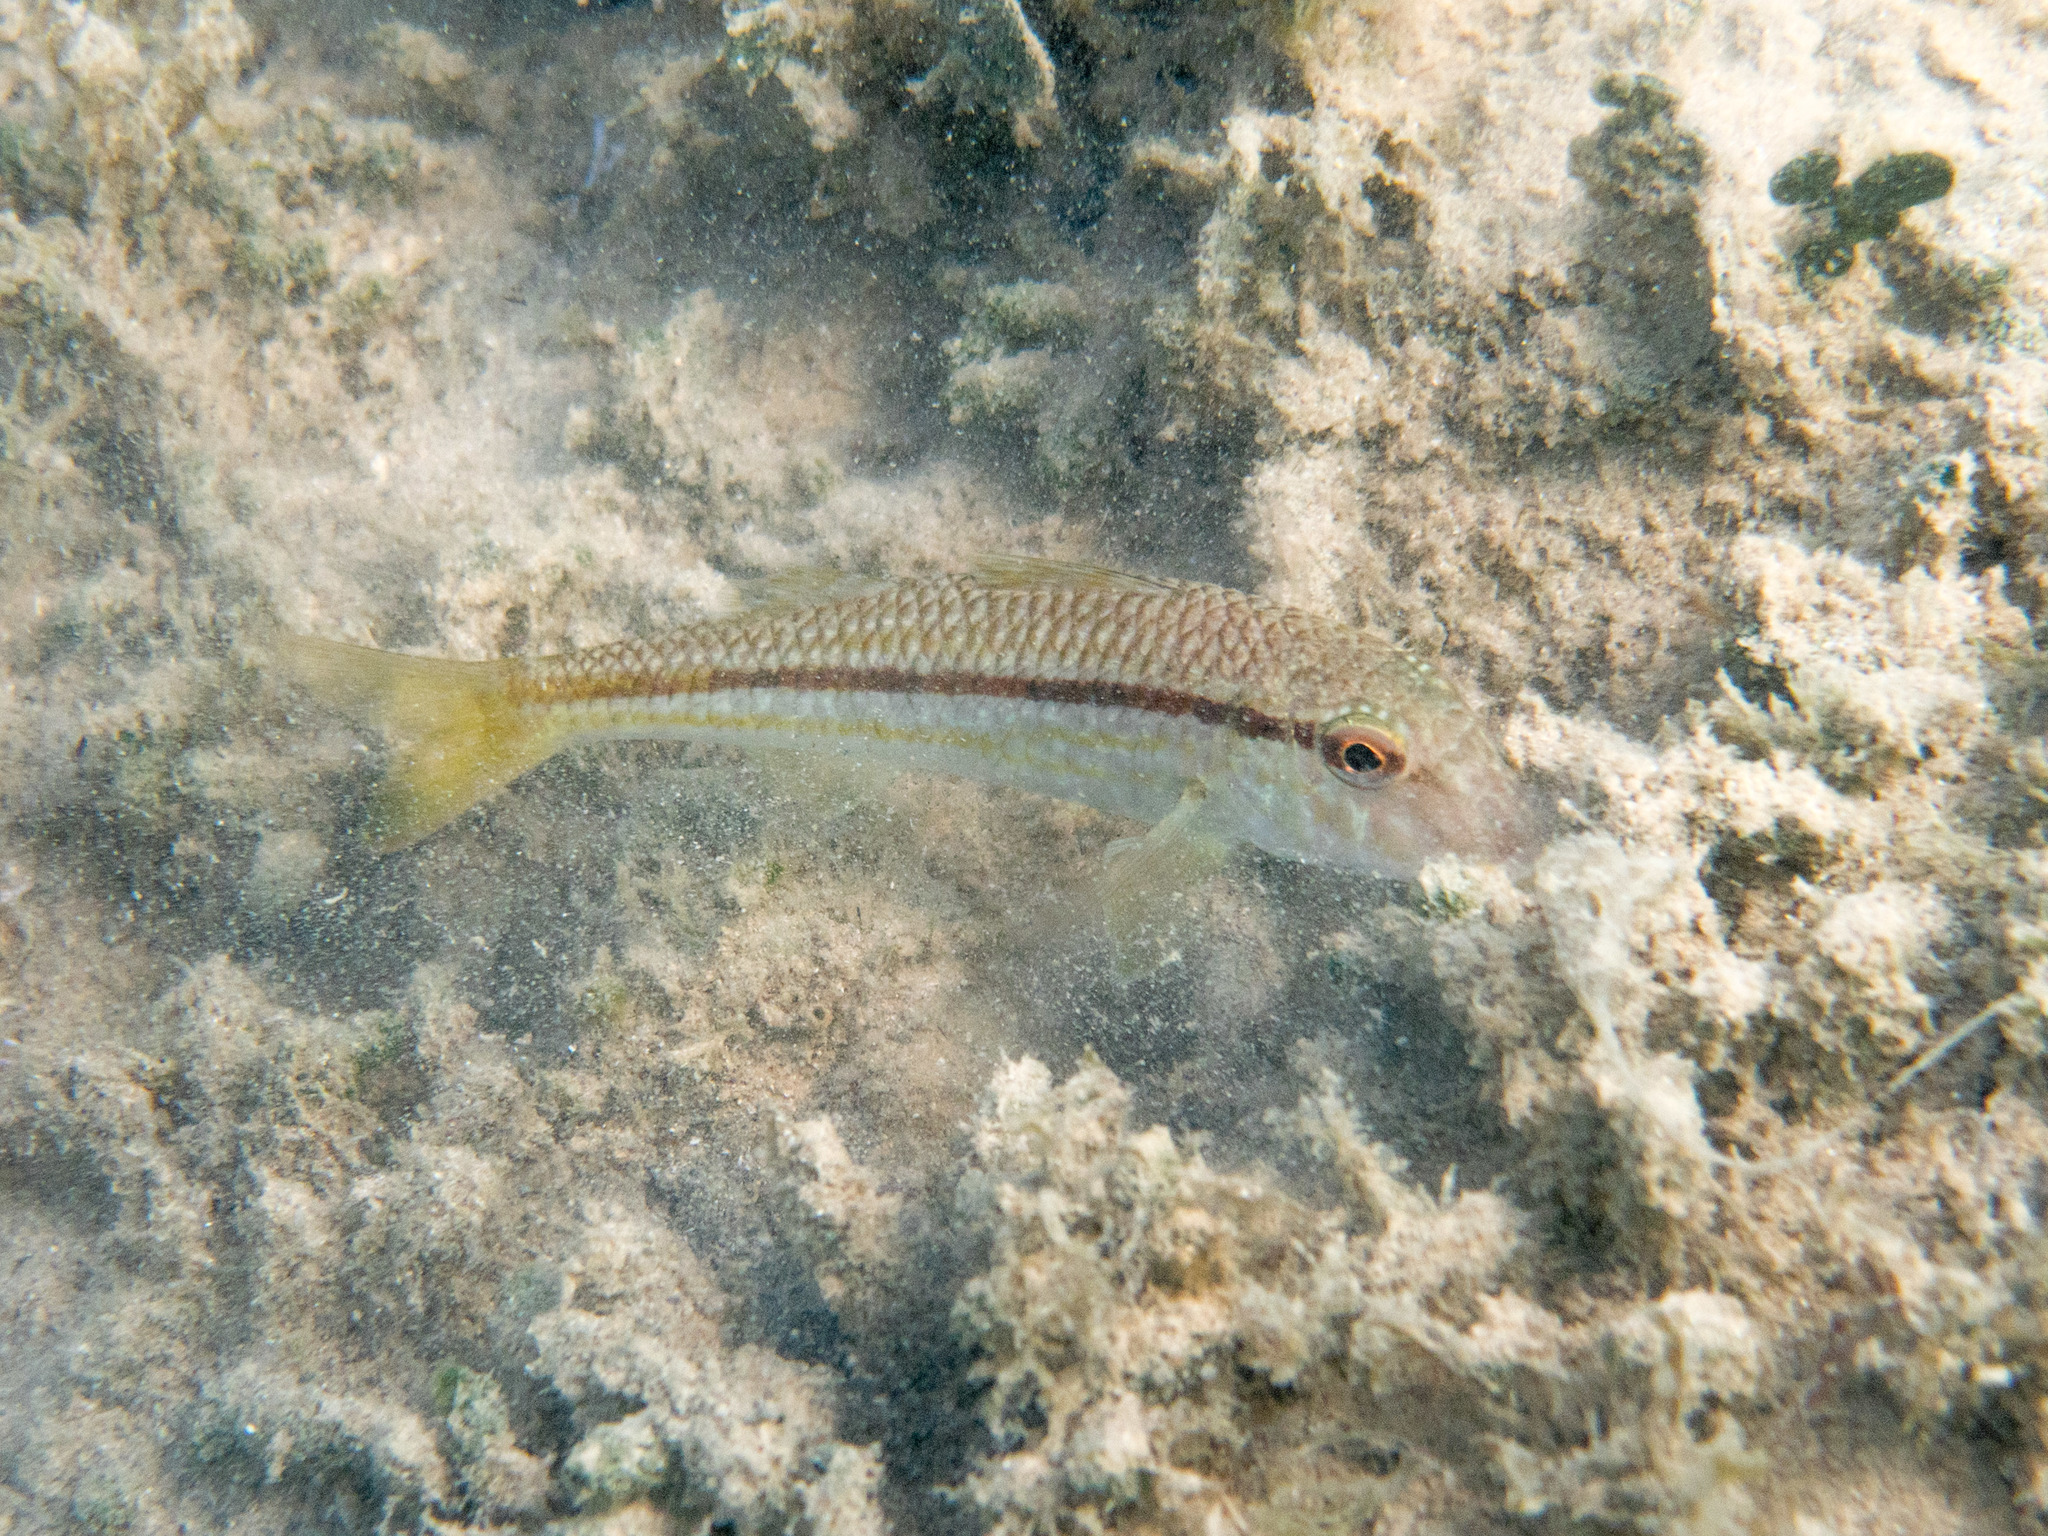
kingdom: Animalia
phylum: Chordata
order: Perciformes
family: Mullidae
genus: Mullus
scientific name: Mullus surmuletus
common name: Red mullet
